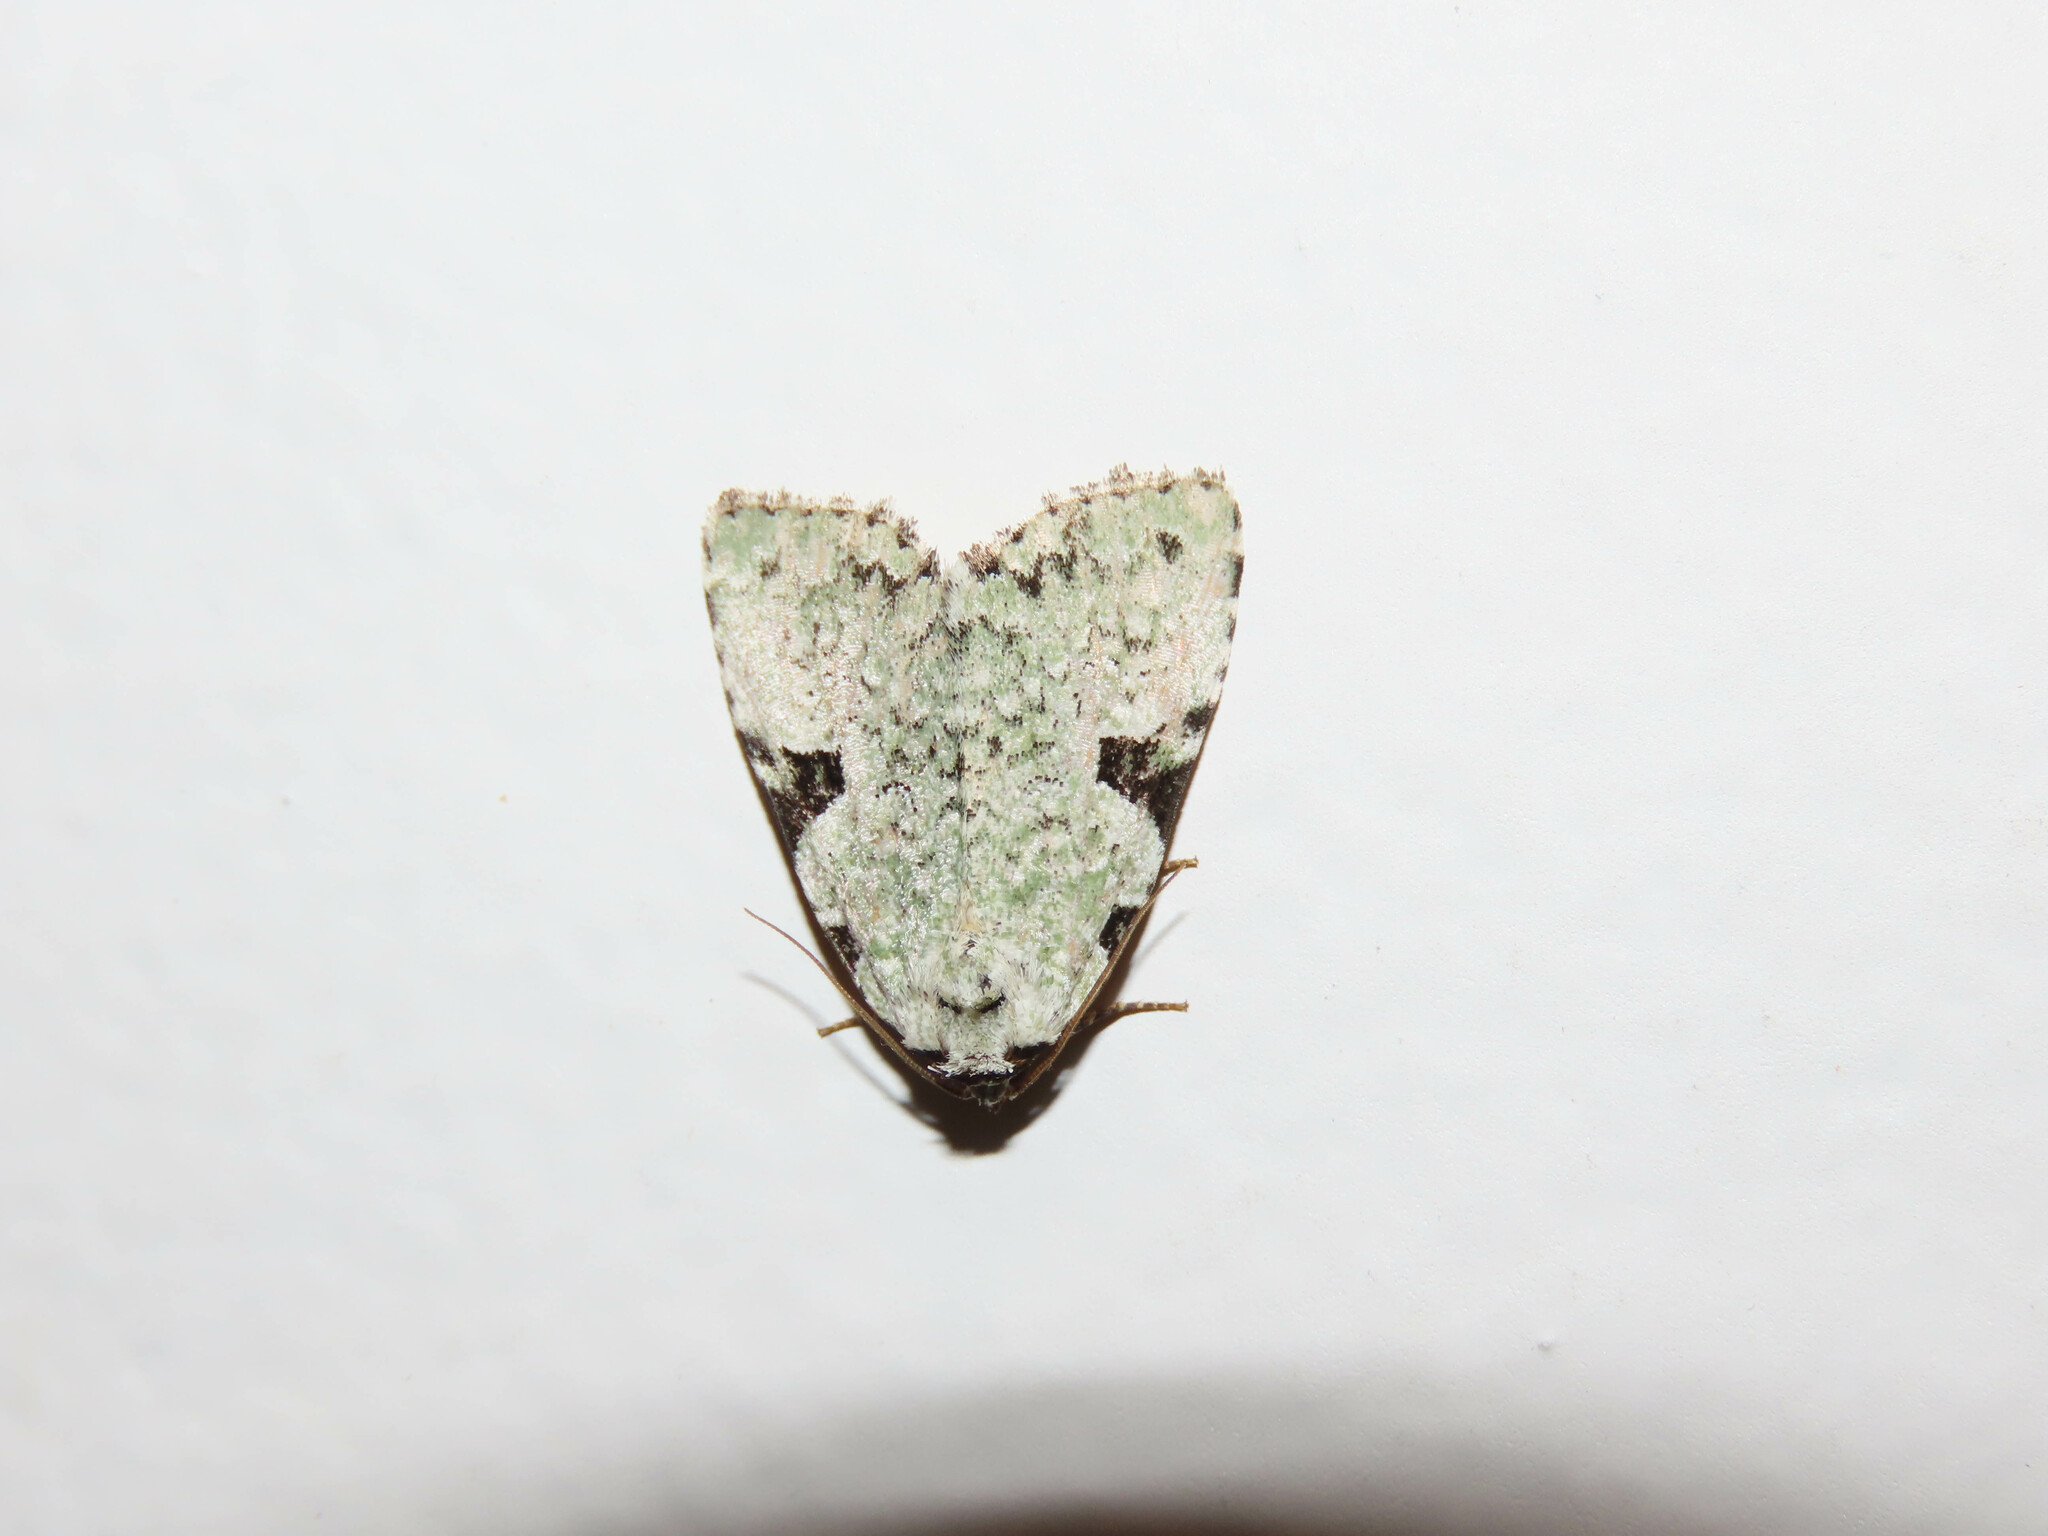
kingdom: Animalia
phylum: Arthropoda
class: Insecta
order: Lepidoptera
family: Noctuidae
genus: Leuconycta
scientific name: Leuconycta diphteroides
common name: Green leuconycta moth
